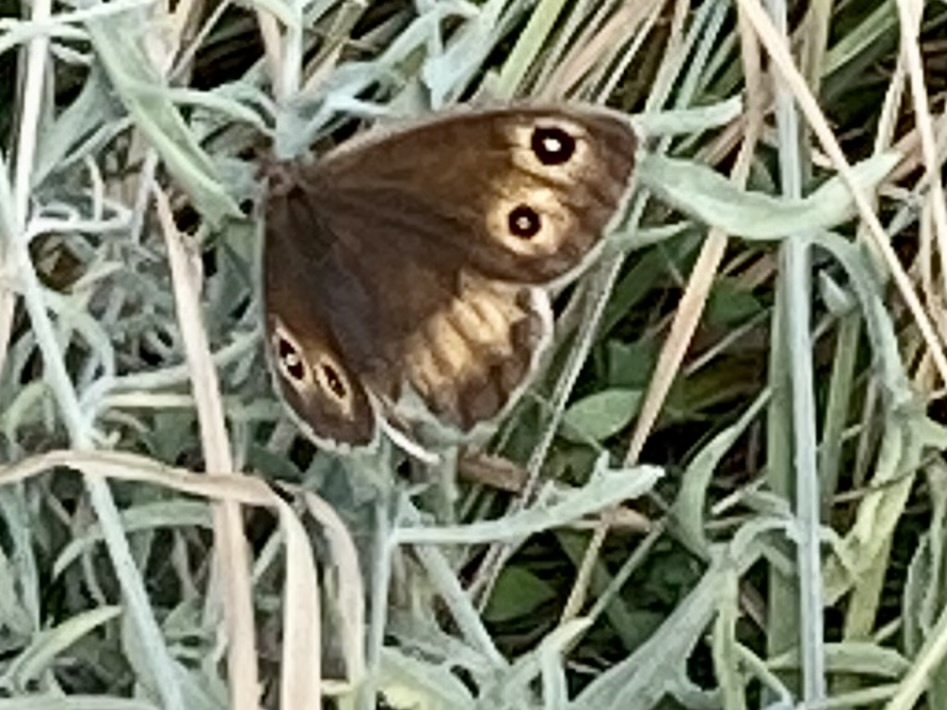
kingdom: Animalia
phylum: Arthropoda
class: Insecta
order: Lepidoptera
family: Nymphalidae
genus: Satyrus
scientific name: Satyrus ferula
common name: Great sooty satyr
